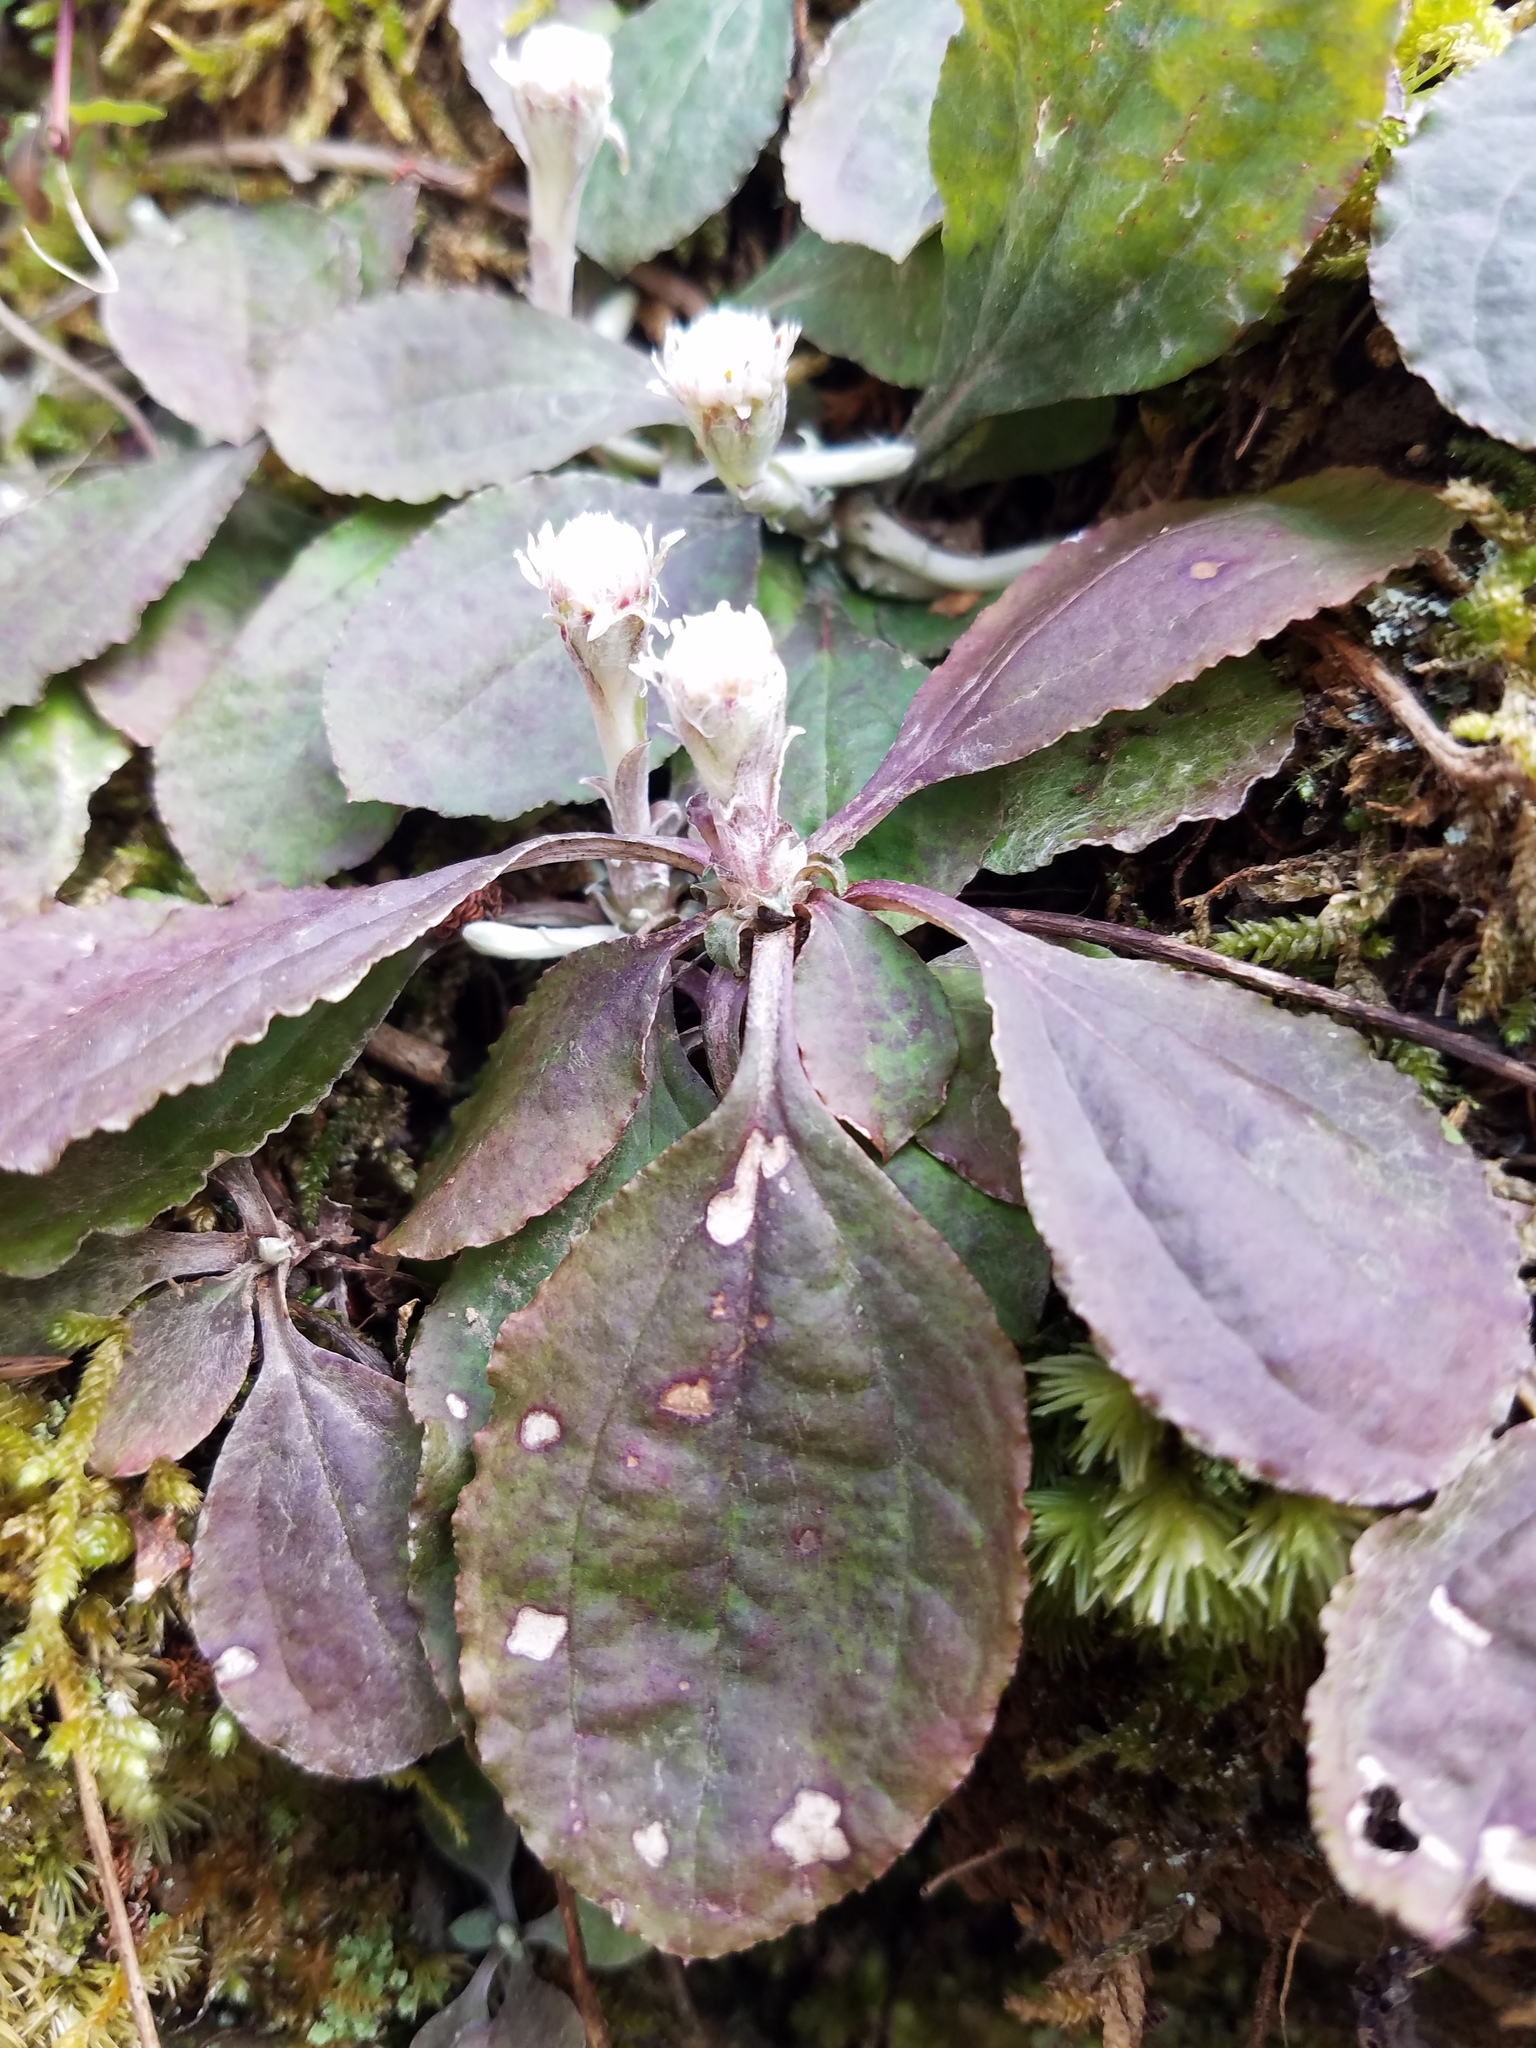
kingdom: Plantae
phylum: Tracheophyta
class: Magnoliopsida
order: Asterales
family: Asteraceae
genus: Antennaria
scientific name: Antennaria solitaria
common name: Single-head pussytoes
